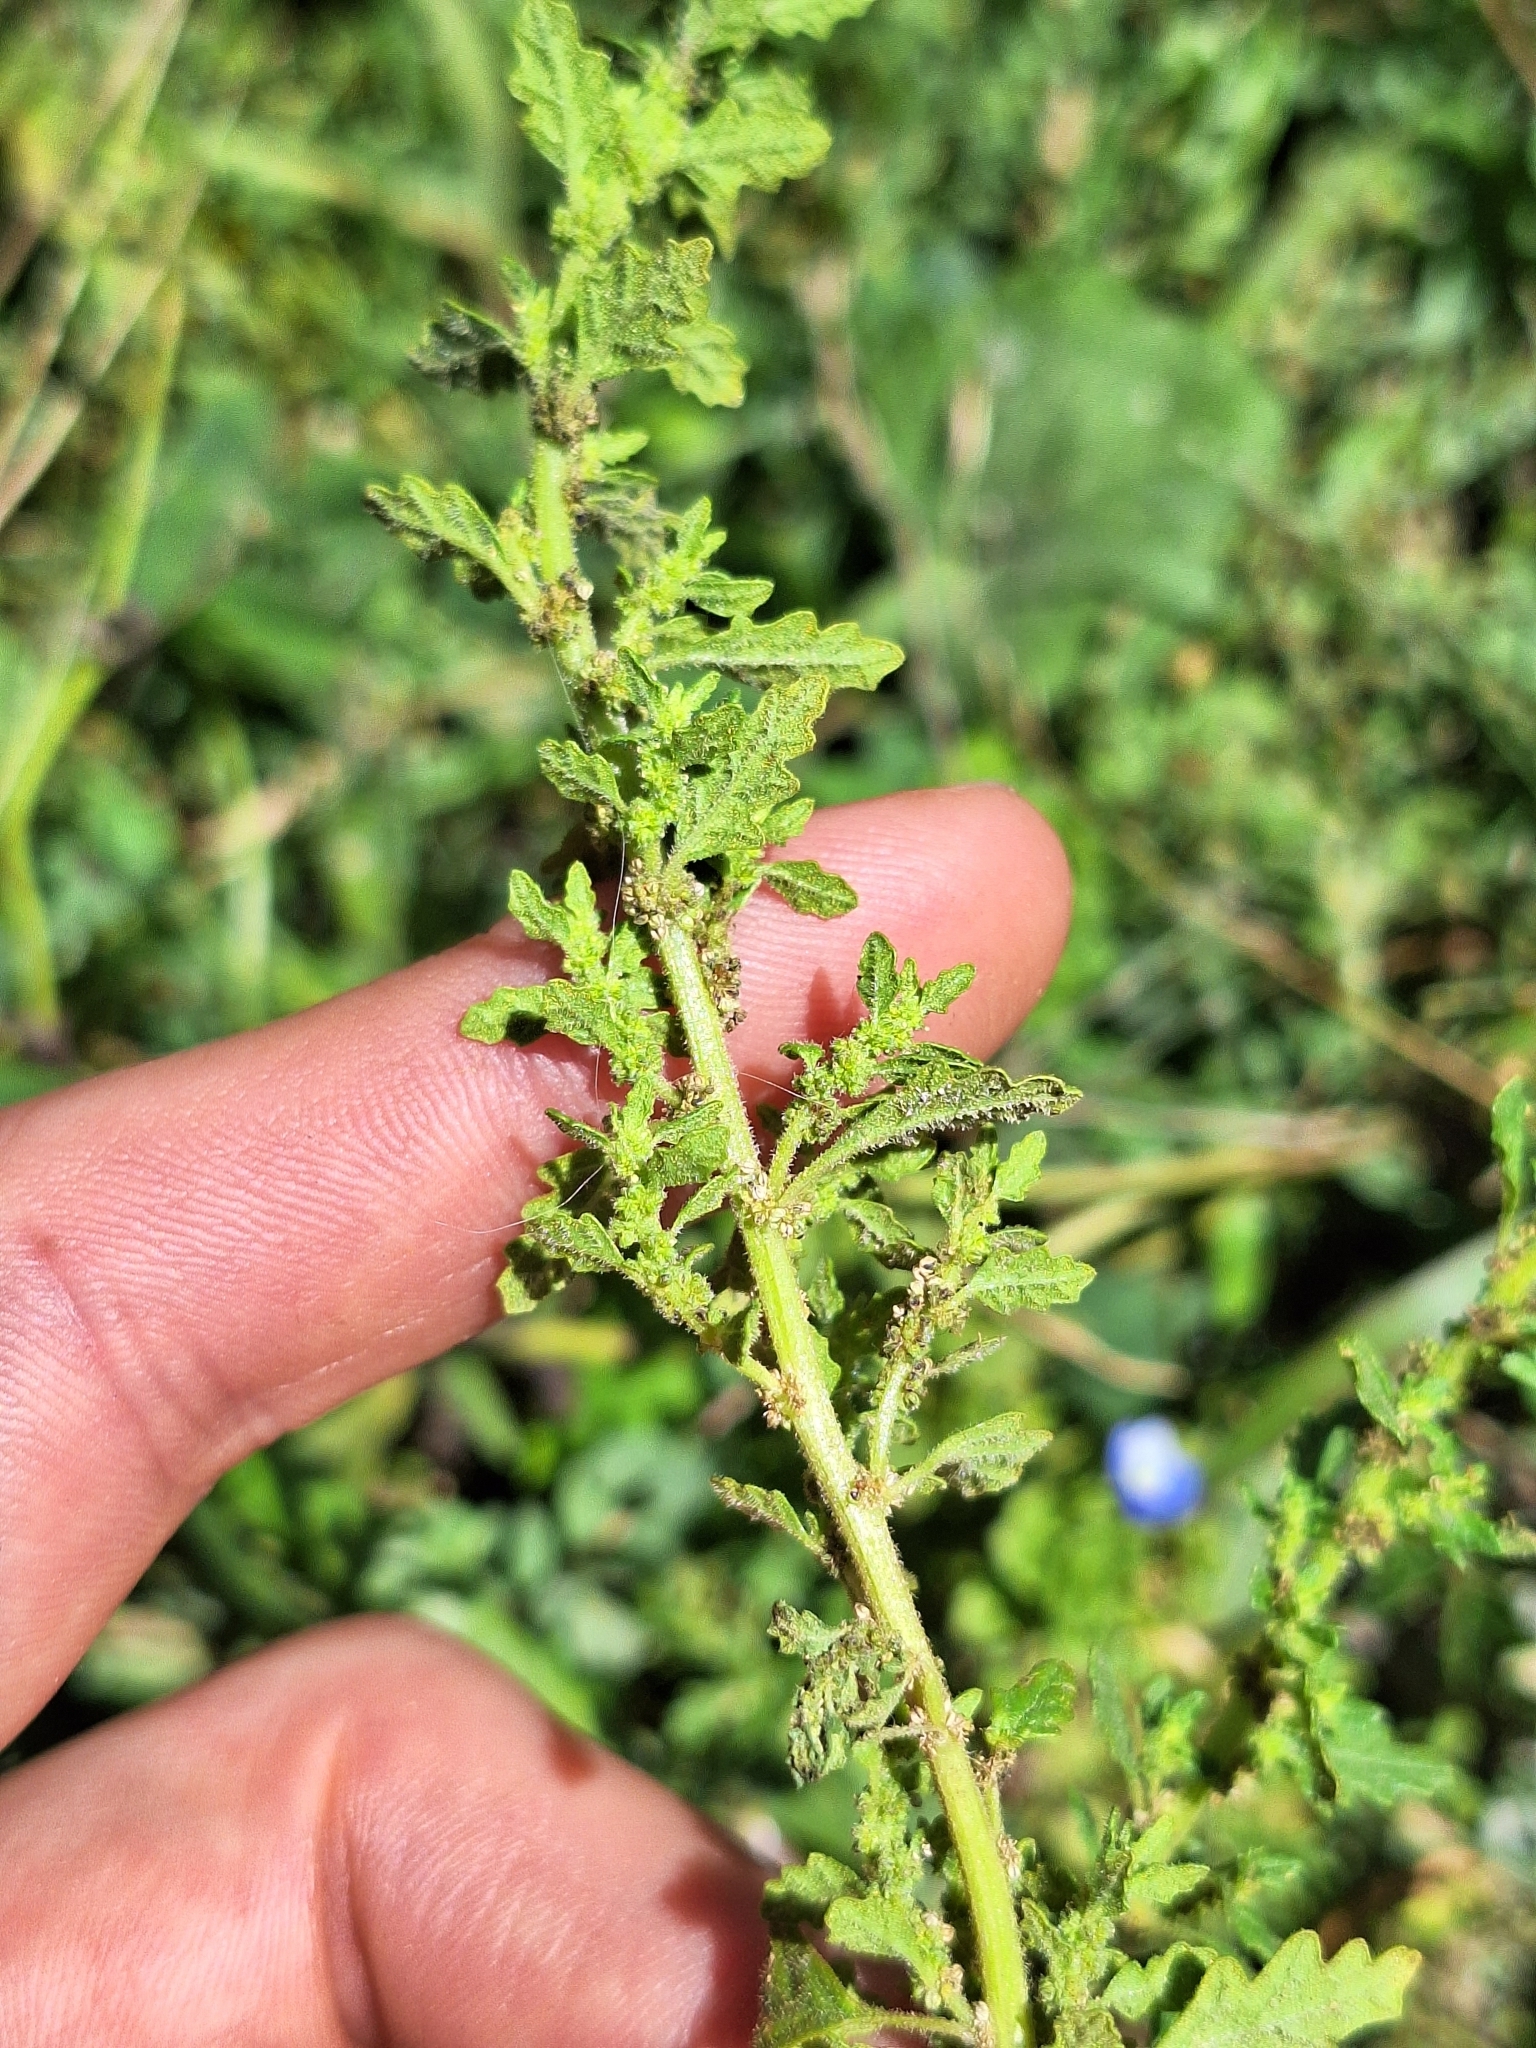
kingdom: Plantae
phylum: Tracheophyta
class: Magnoliopsida
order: Caryophyllales
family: Amaranthaceae
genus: Dysphania
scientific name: Dysphania pumilio
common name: Clammy goosefoot
